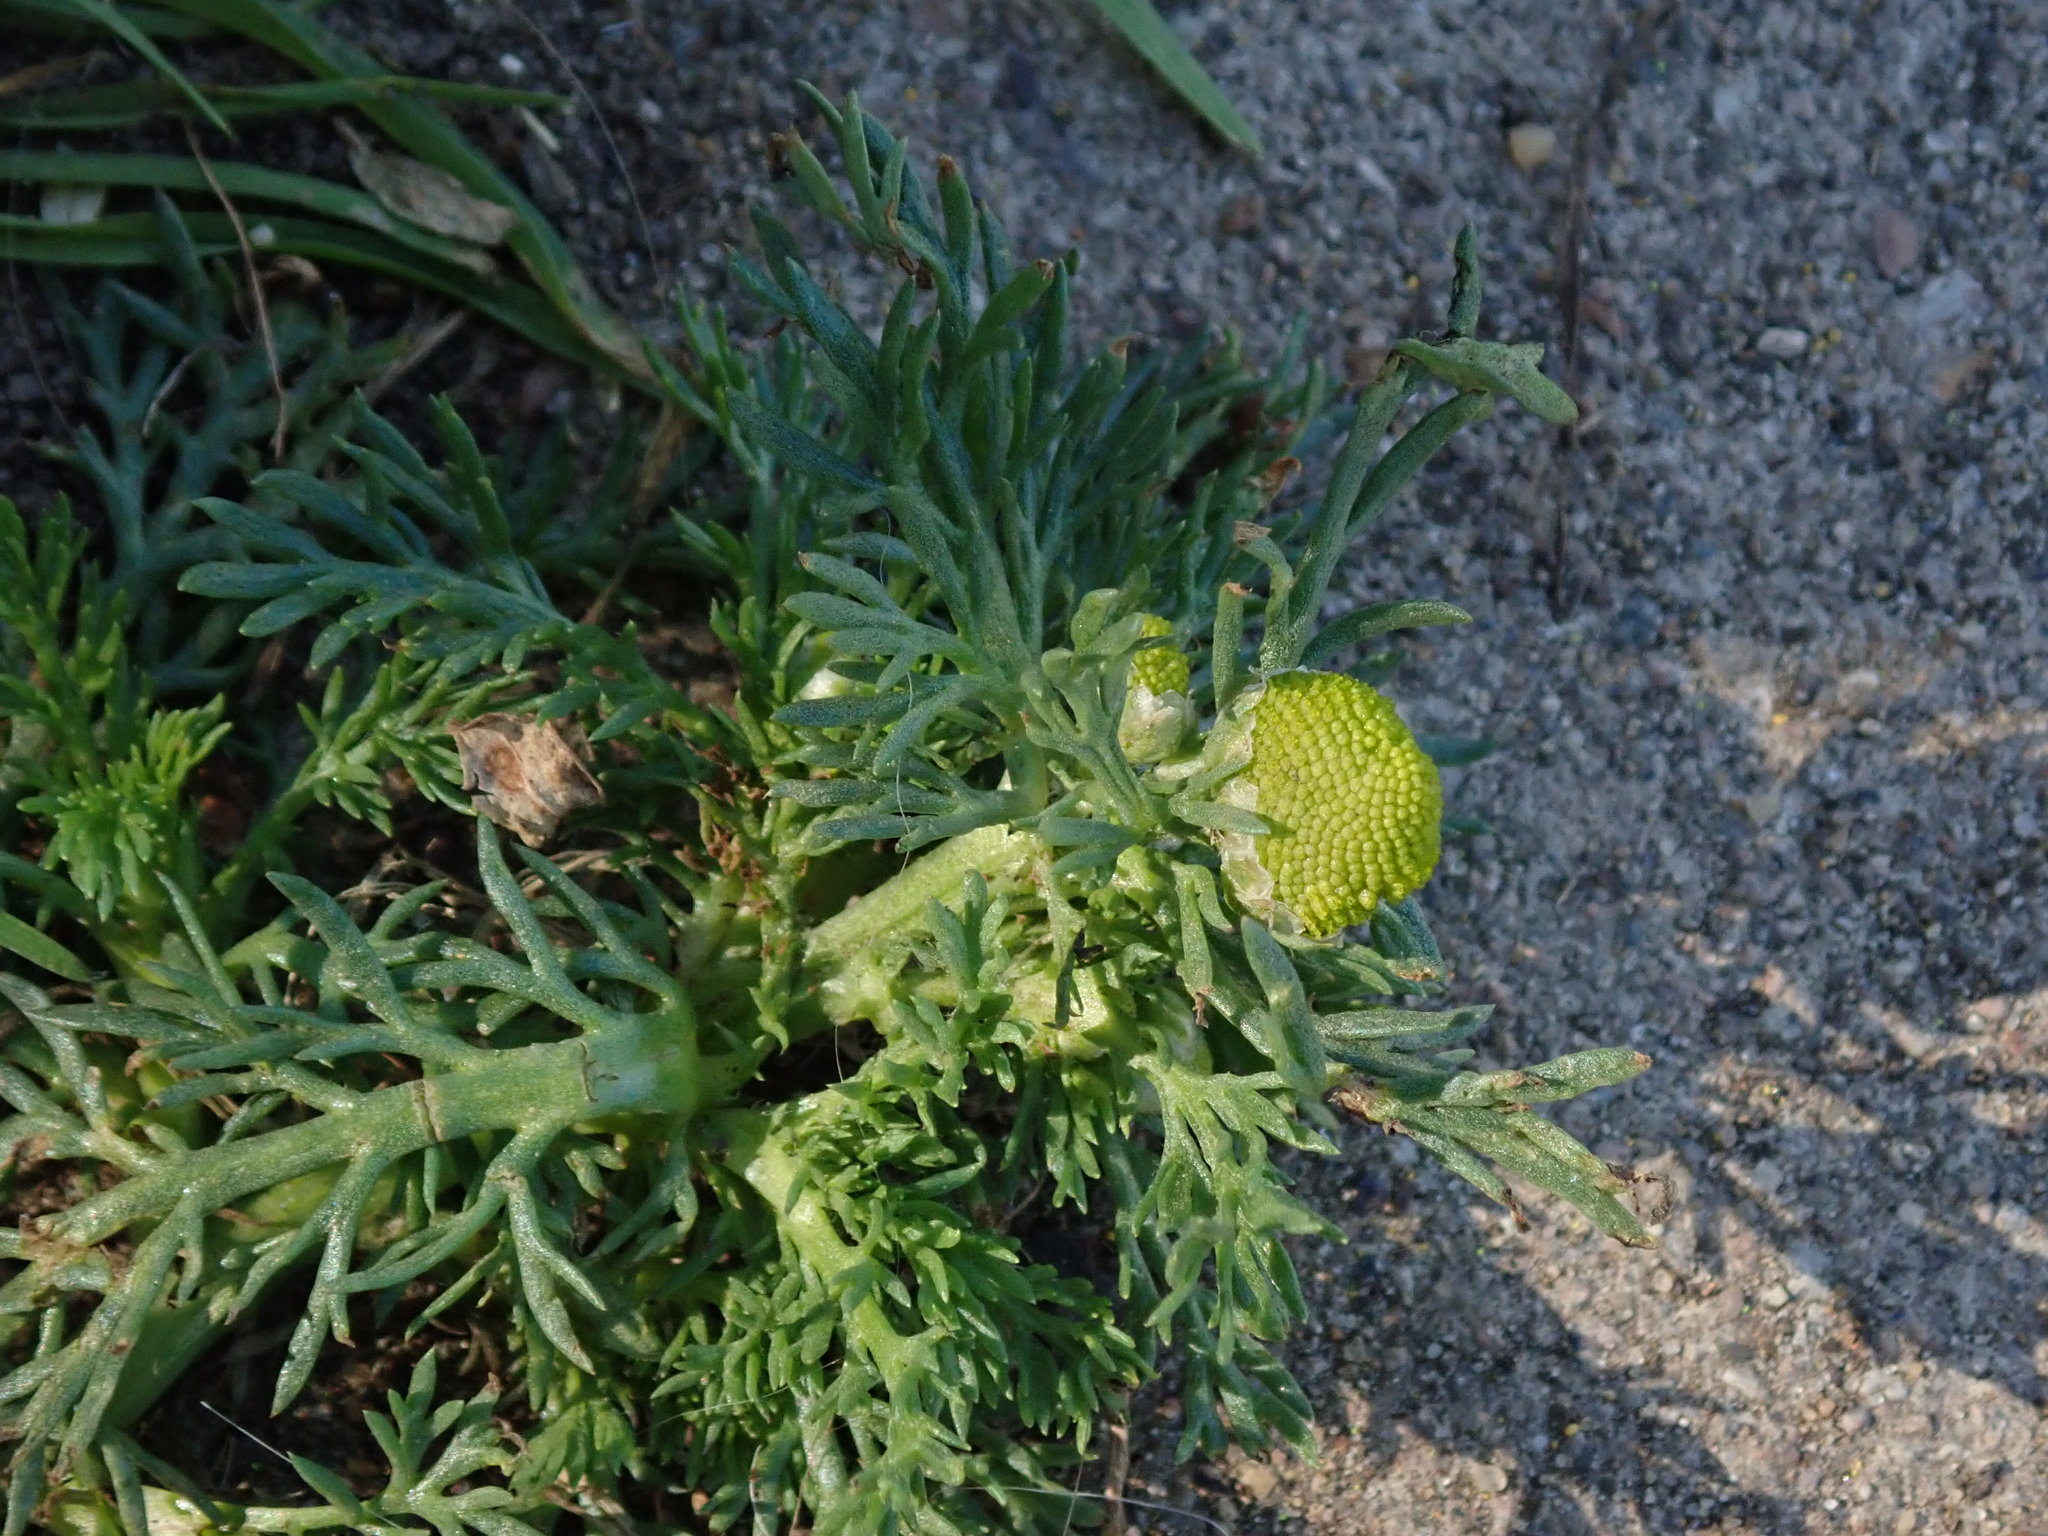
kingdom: Plantae
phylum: Tracheophyta
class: Magnoliopsida
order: Asterales
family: Asteraceae
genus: Matricaria
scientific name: Matricaria discoidea
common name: Disc mayweed
